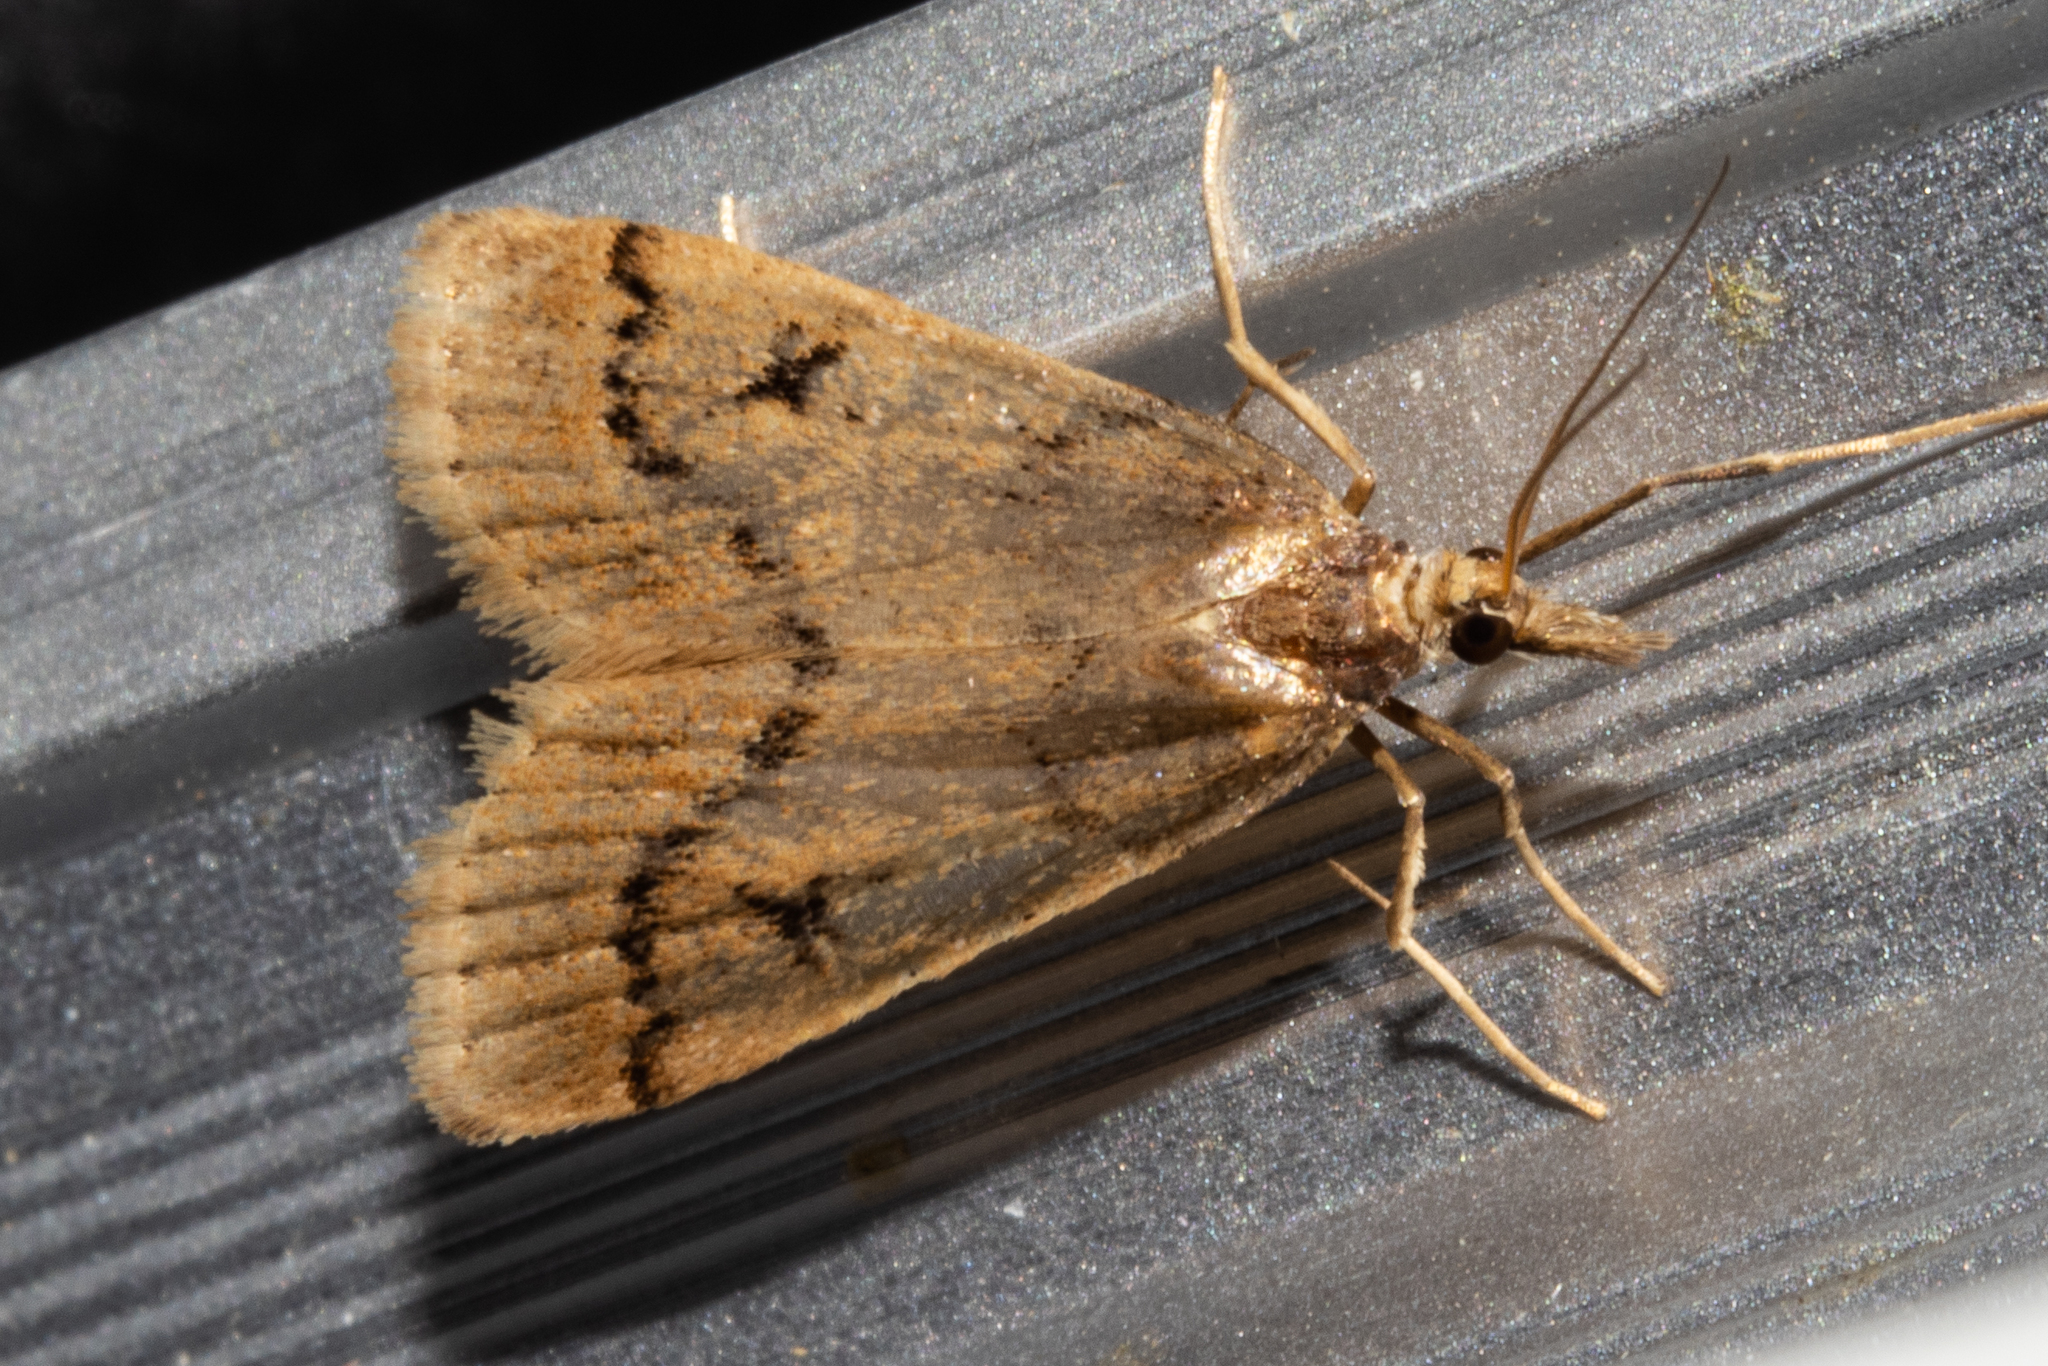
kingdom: Animalia
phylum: Arthropoda
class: Insecta
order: Lepidoptera
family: Crambidae
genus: Scoparia
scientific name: Scoparia fumata
